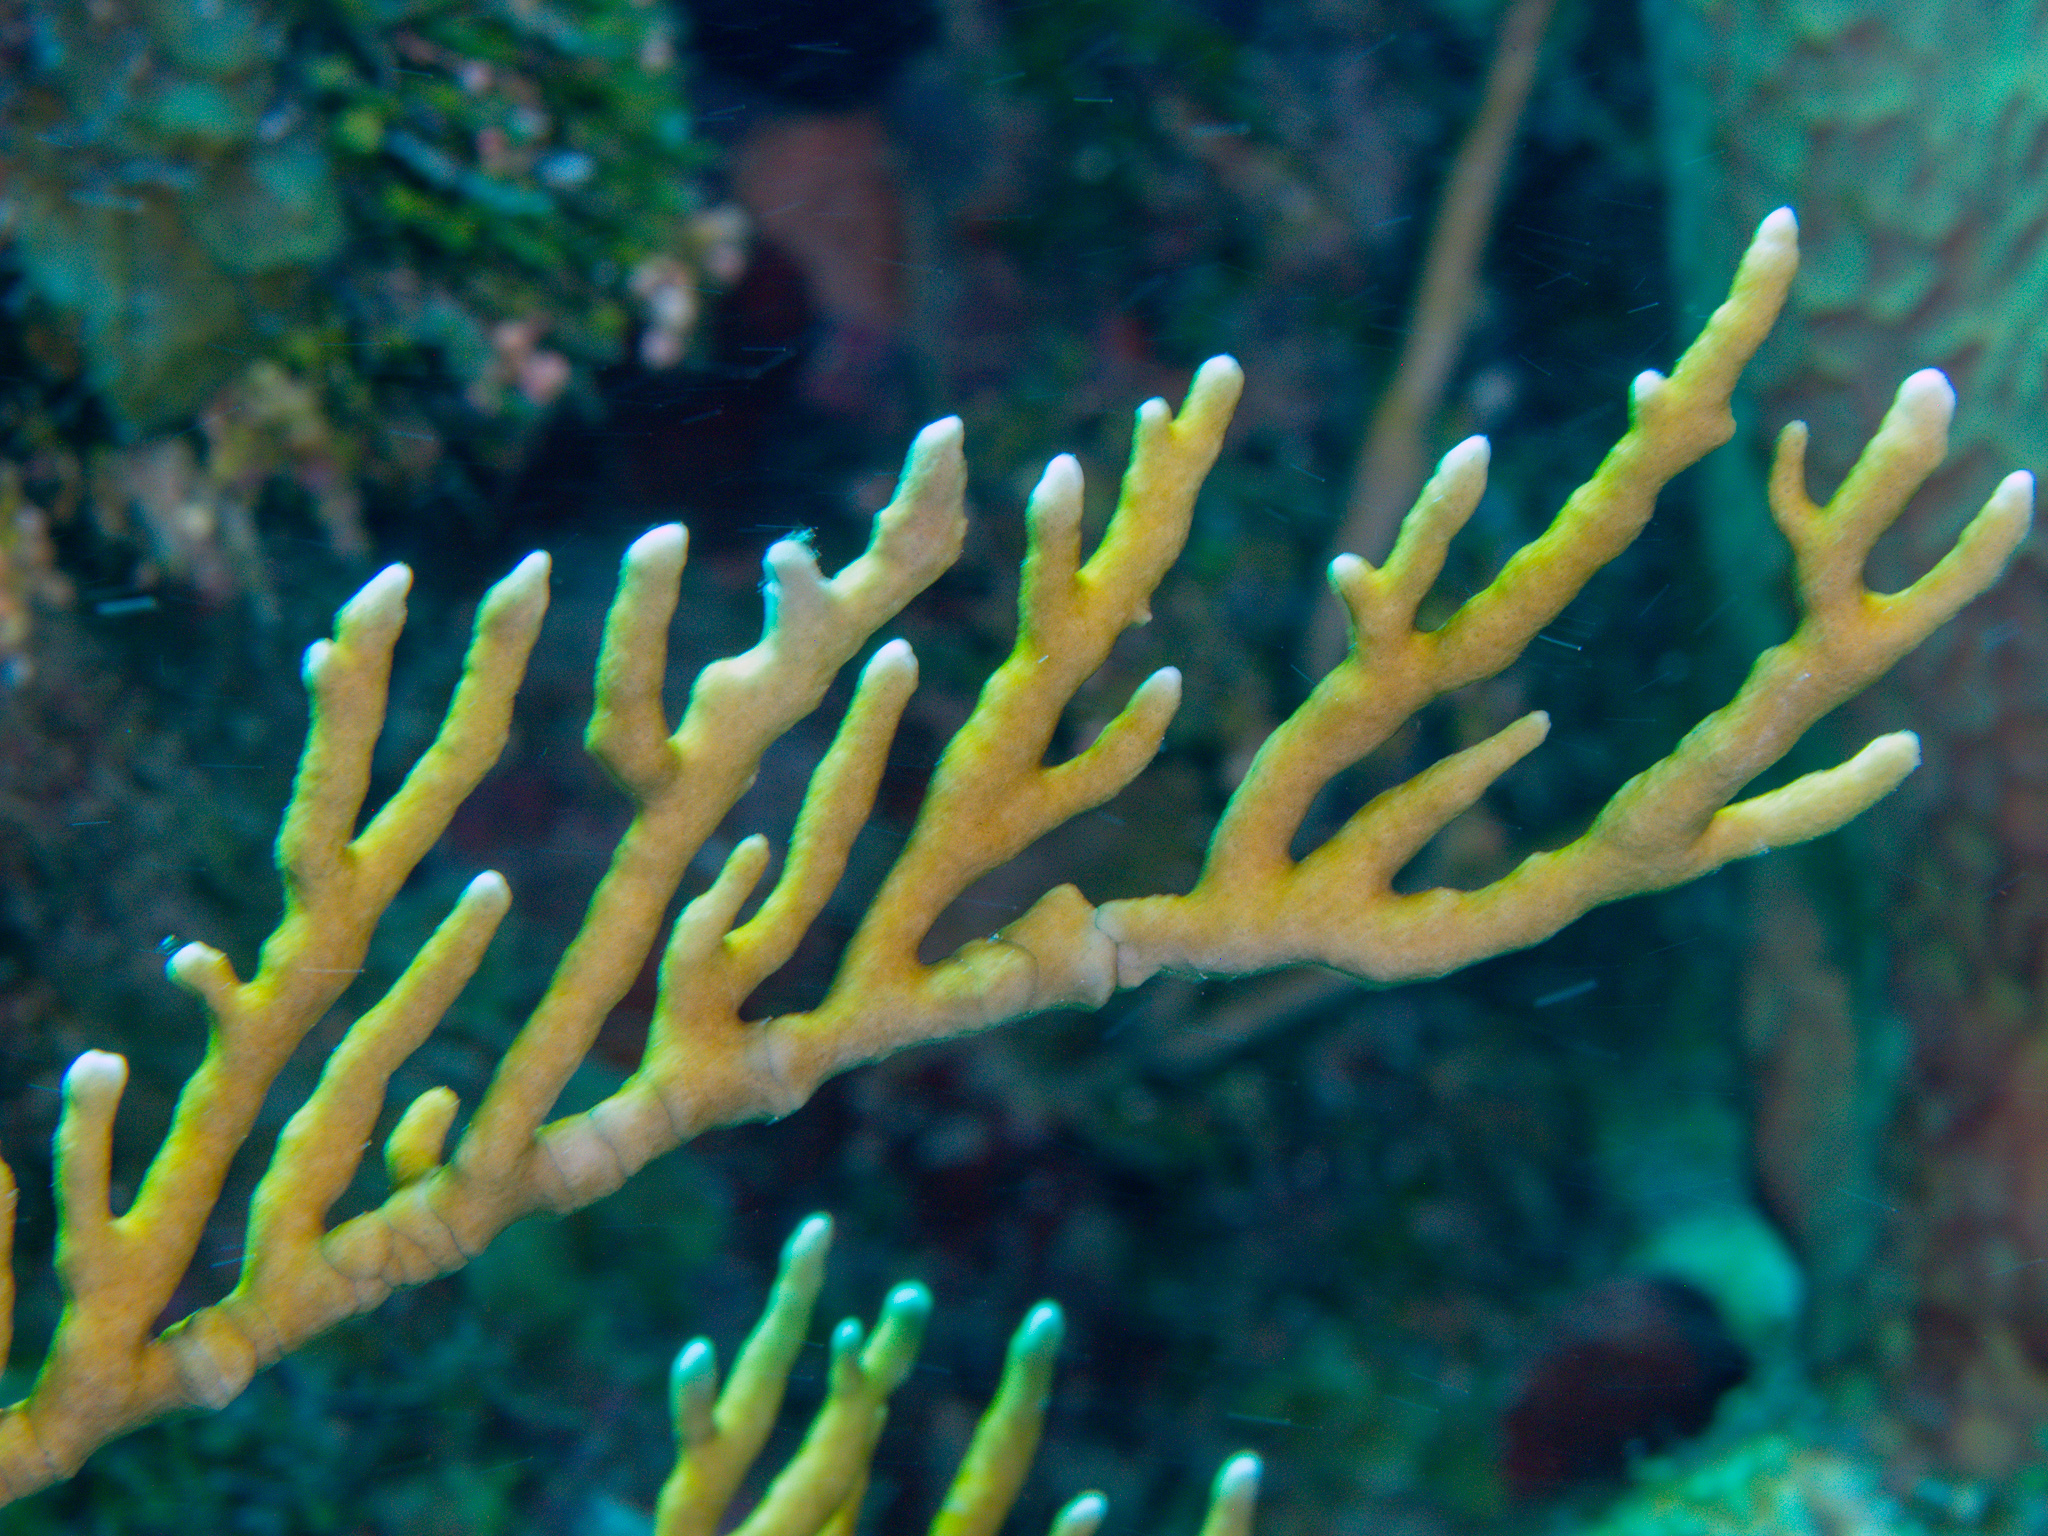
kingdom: Animalia
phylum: Cnidaria
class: Hydrozoa
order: Anthoathecata
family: Milleporidae
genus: Millepora
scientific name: Millepora alcicornis
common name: Branching fire coral
